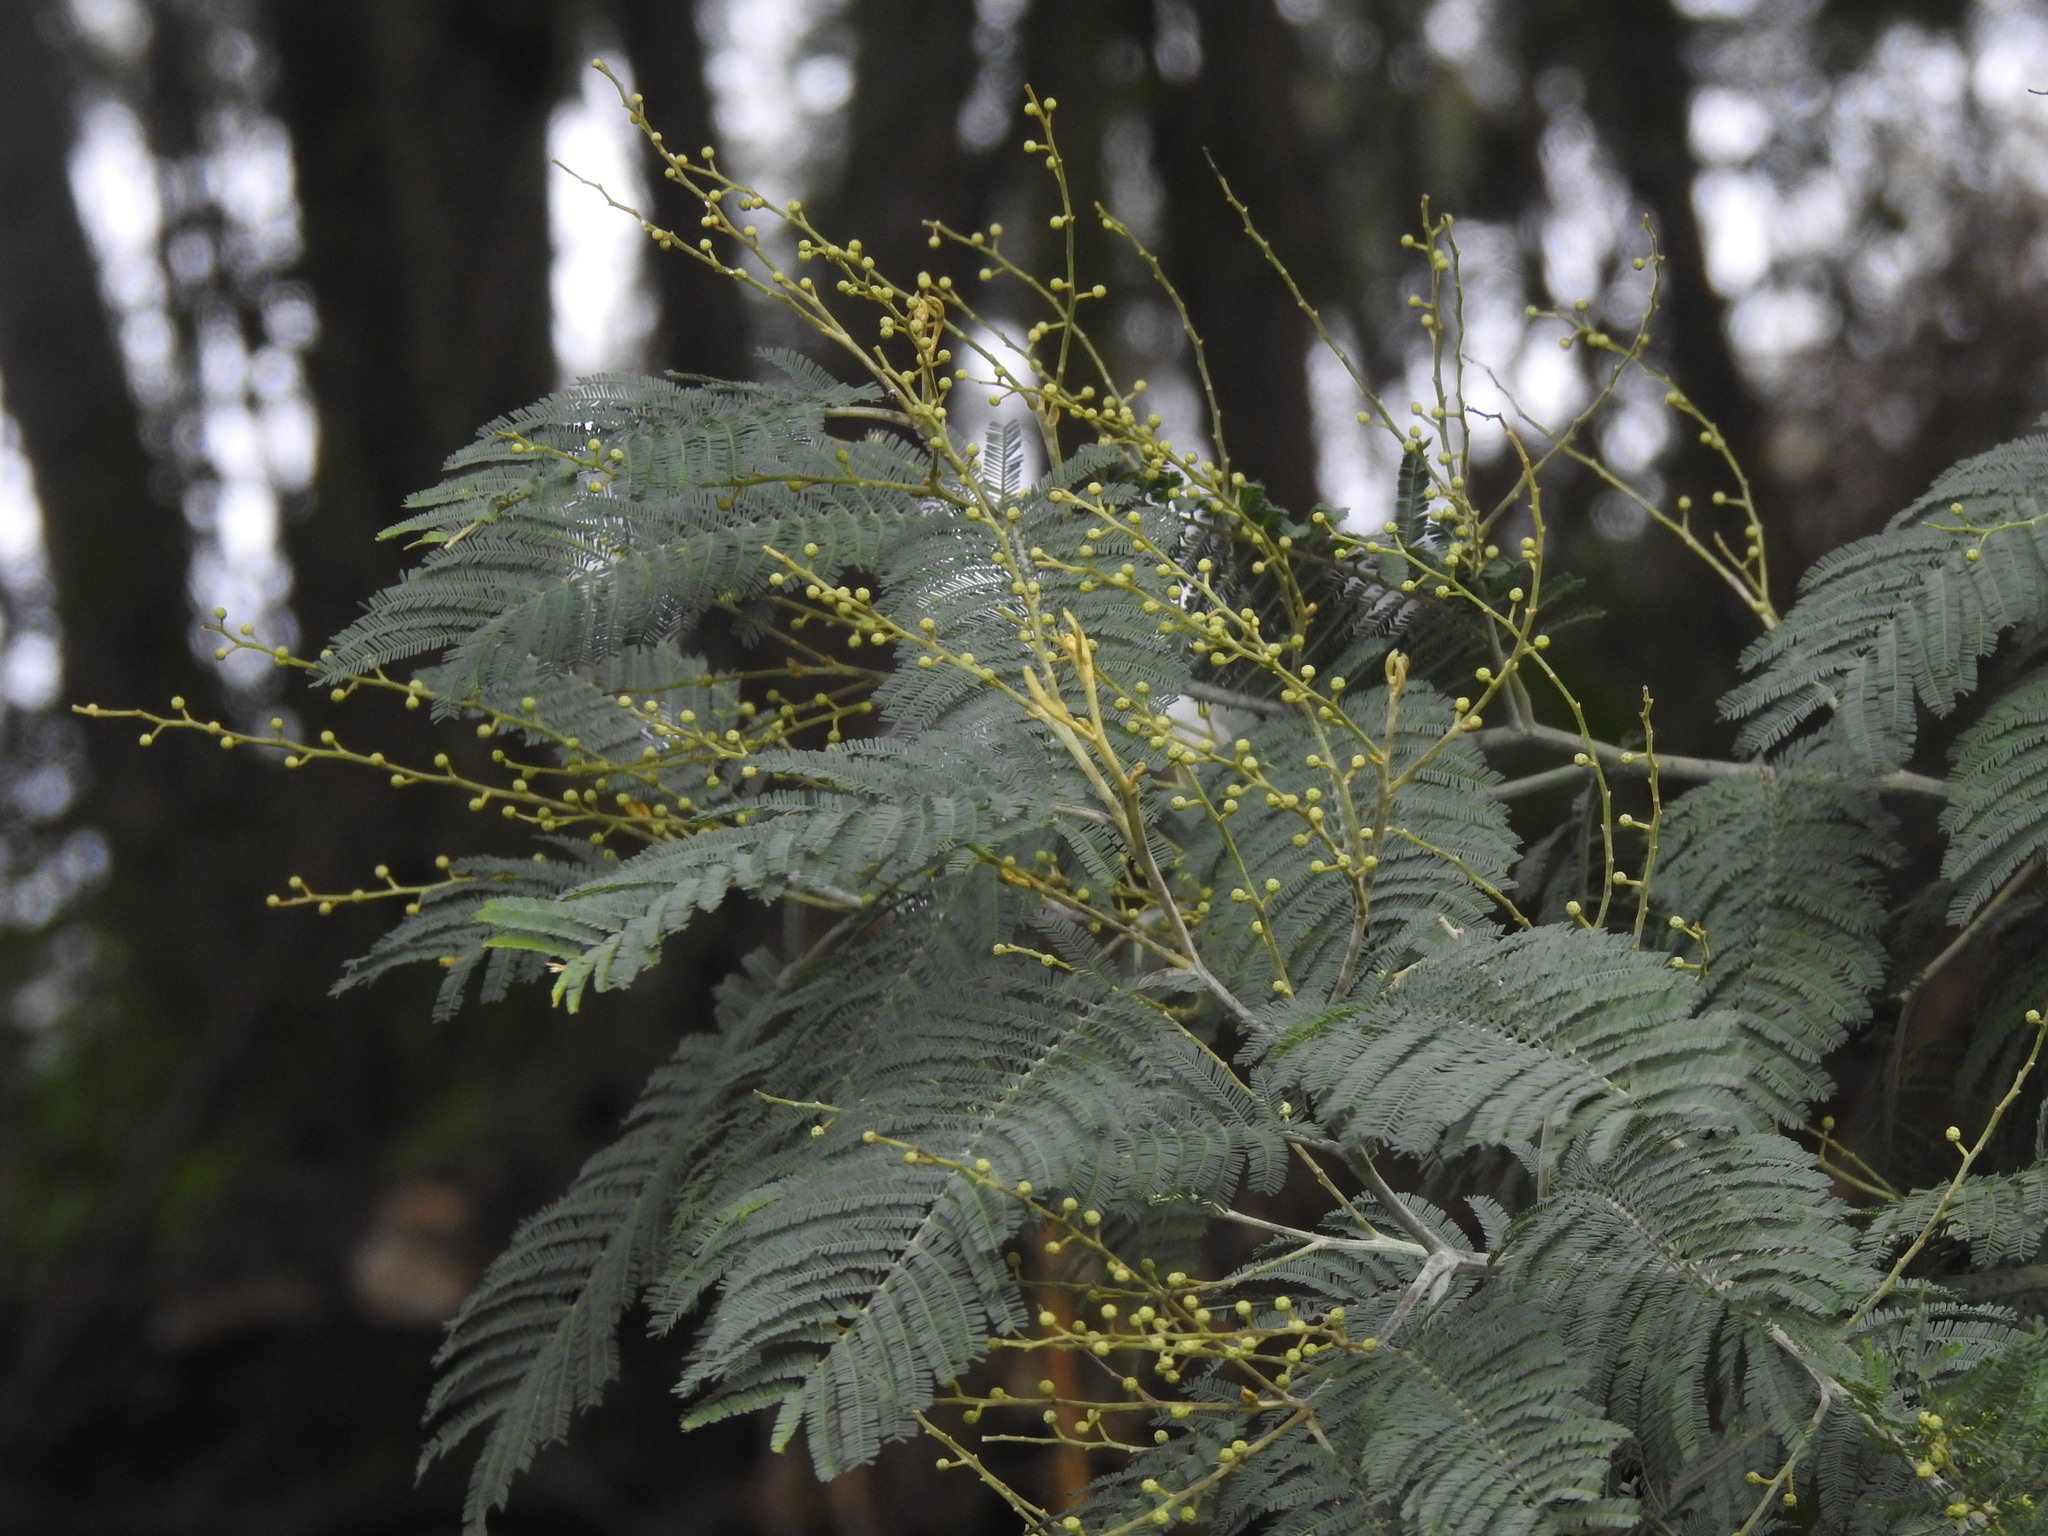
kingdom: Plantae
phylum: Tracheophyta
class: Magnoliopsida
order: Fabales
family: Fabaceae
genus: Acacia
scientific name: Acacia dealbata
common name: Silver wattle
